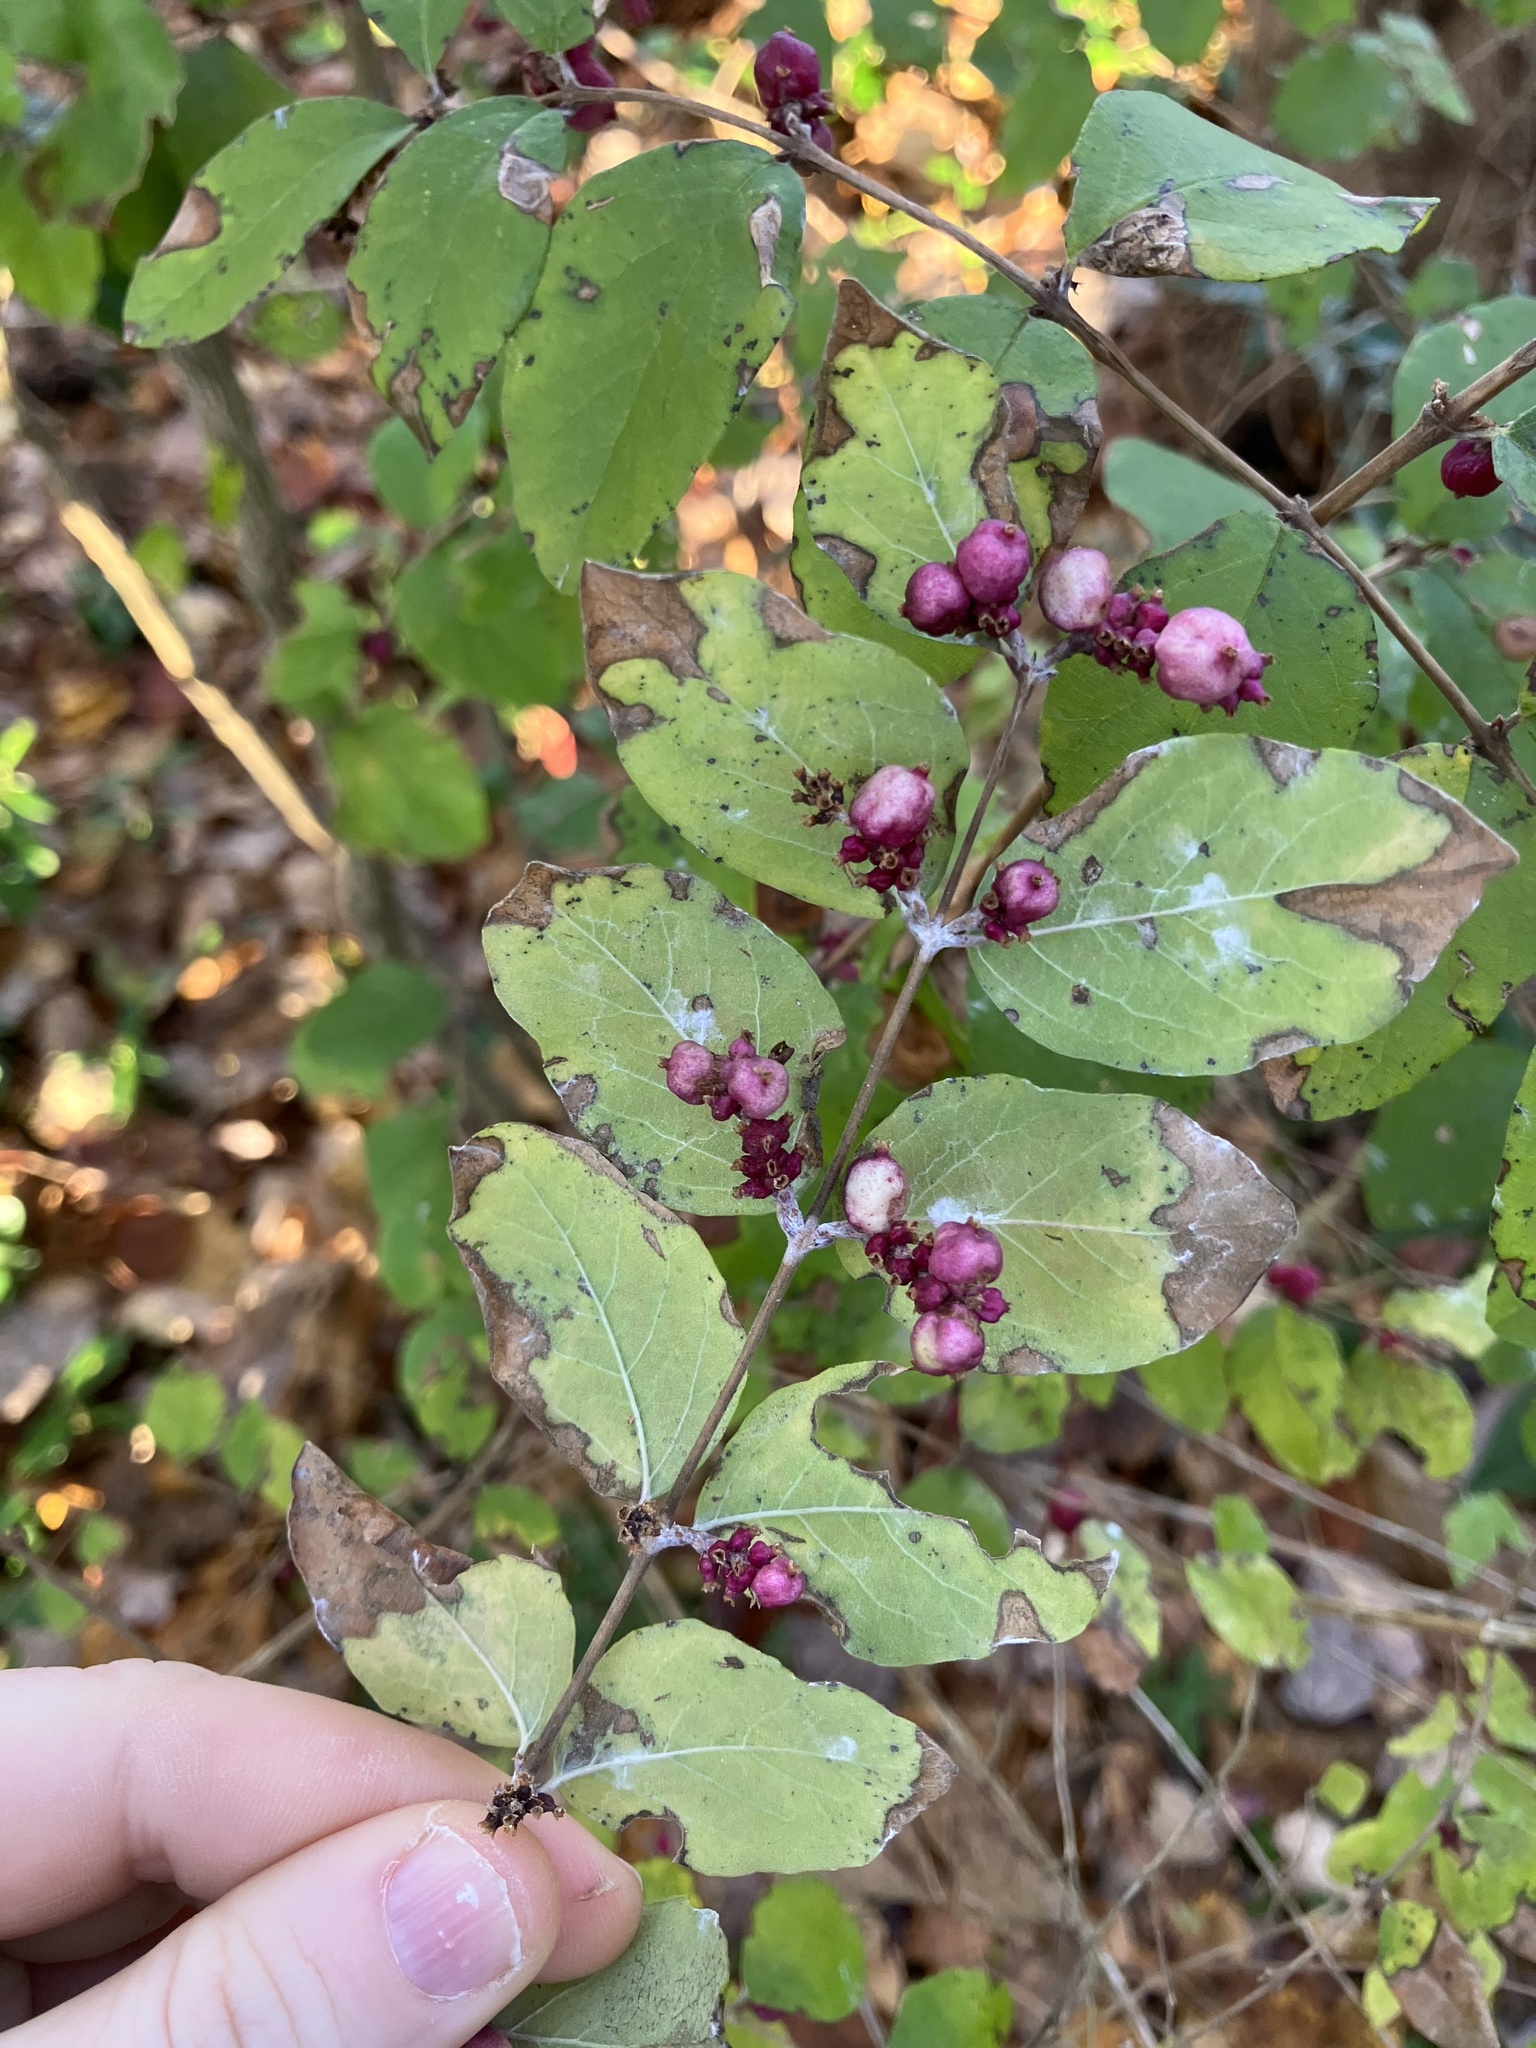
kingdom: Plantae
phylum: Tracheophyta
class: Magnoliopsida
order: Dipsacales
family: Caprifoliaceae
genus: Symphoricarpos
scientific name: Symphoricarpos orbiculatus
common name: Coralberry
